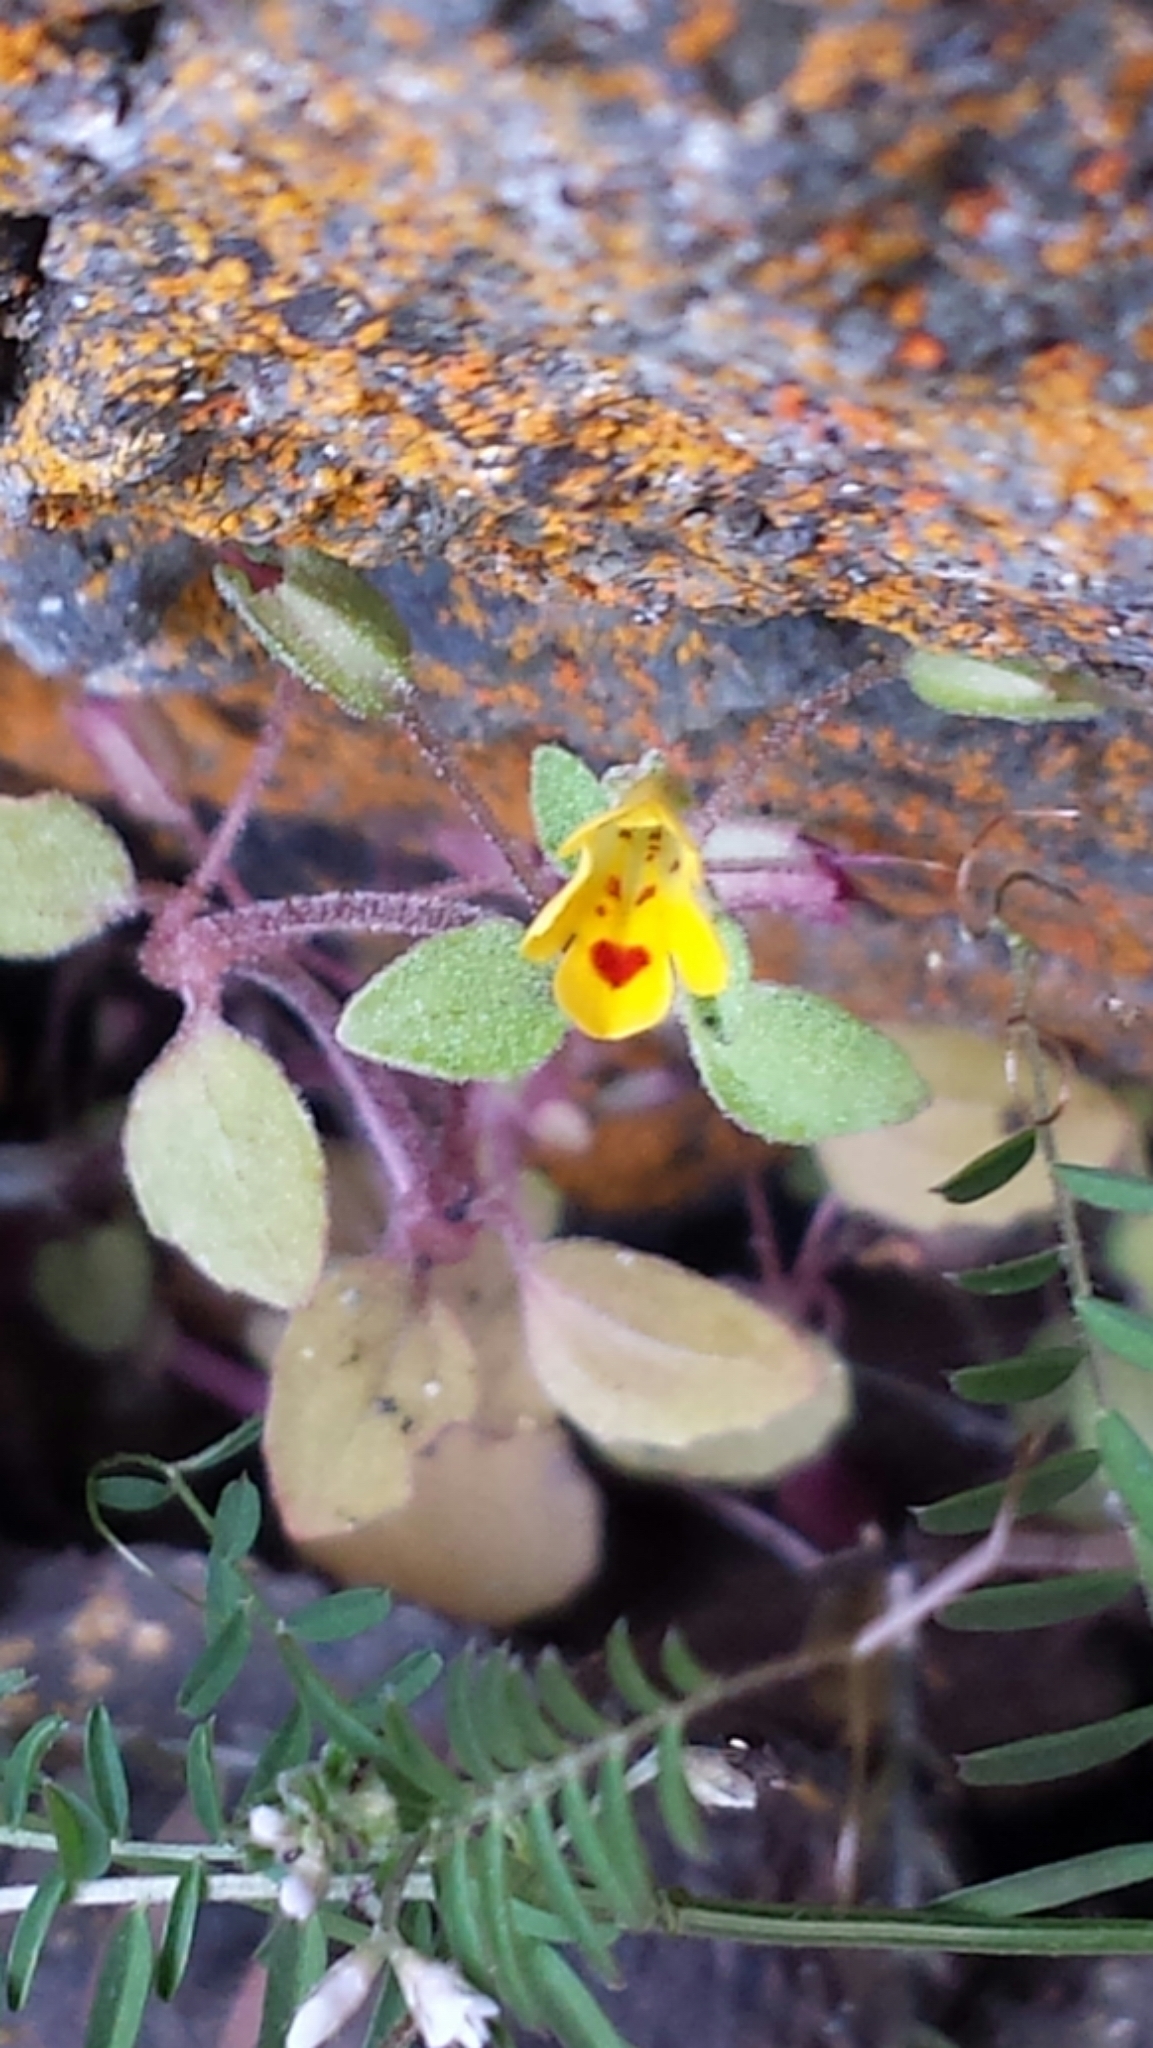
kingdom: Plantae
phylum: Tracheophyta
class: Magnoliopsida
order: Lamiales
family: Phrymaceae
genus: Erythranthe
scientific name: Erythranthe alsinoides
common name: Chickweed monkeyflower
